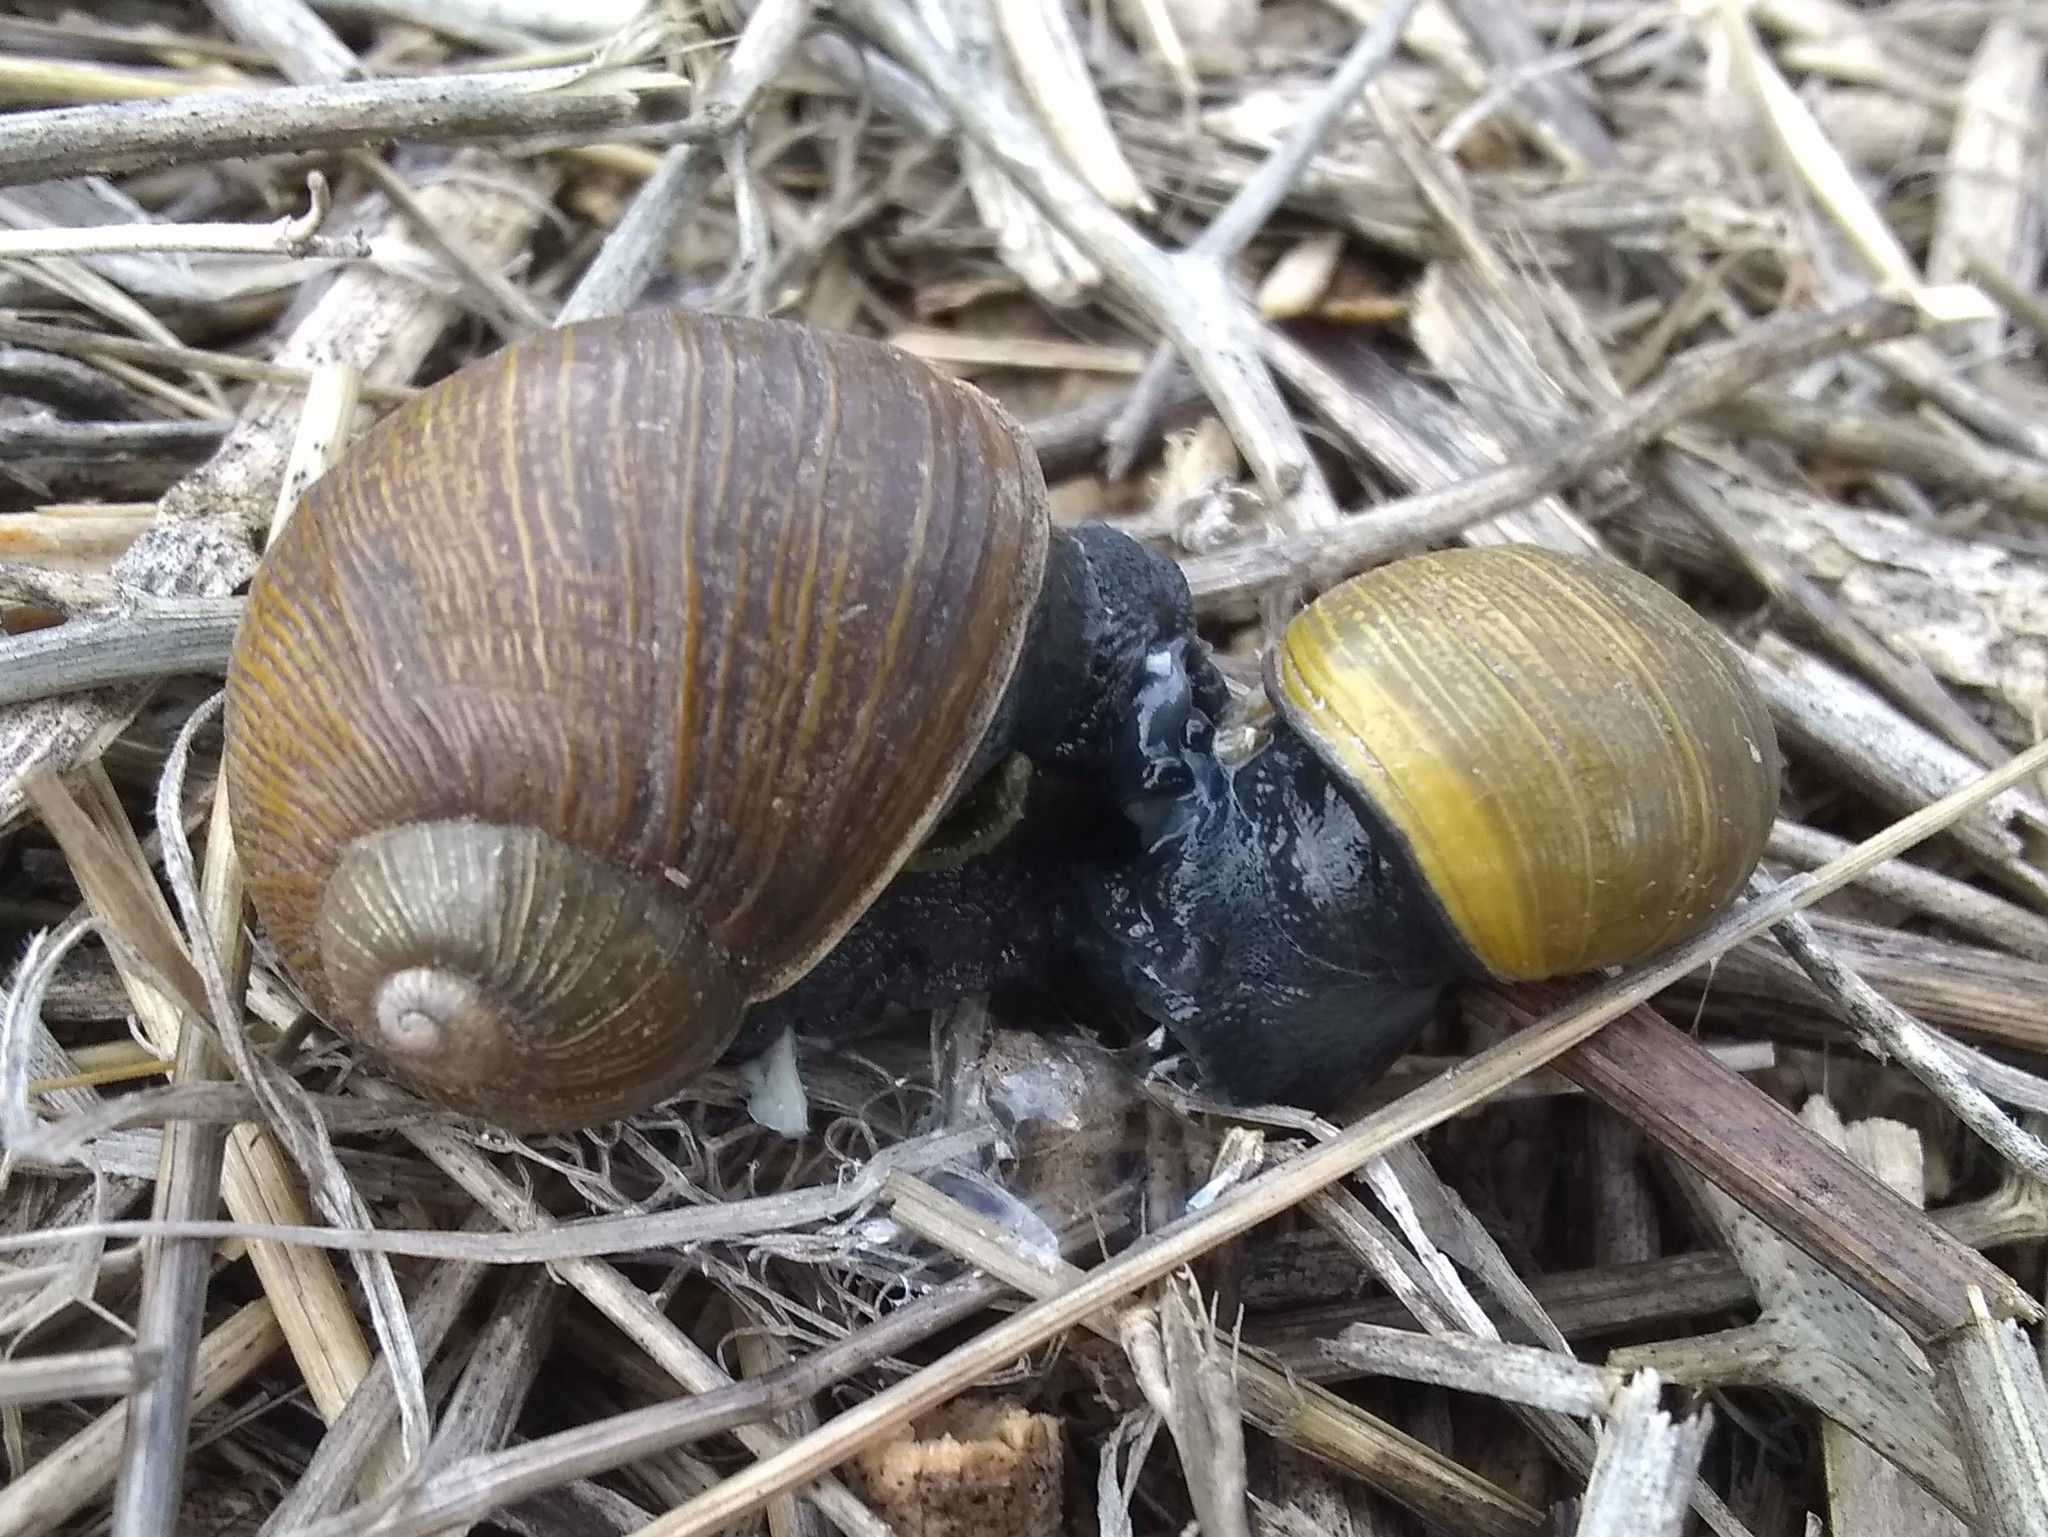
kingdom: Animalia
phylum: Mollusca
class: Gastropoda
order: Stylommatophora
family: Helicidae
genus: Cantareus
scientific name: Cantareus apertus
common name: Green gardensnail
